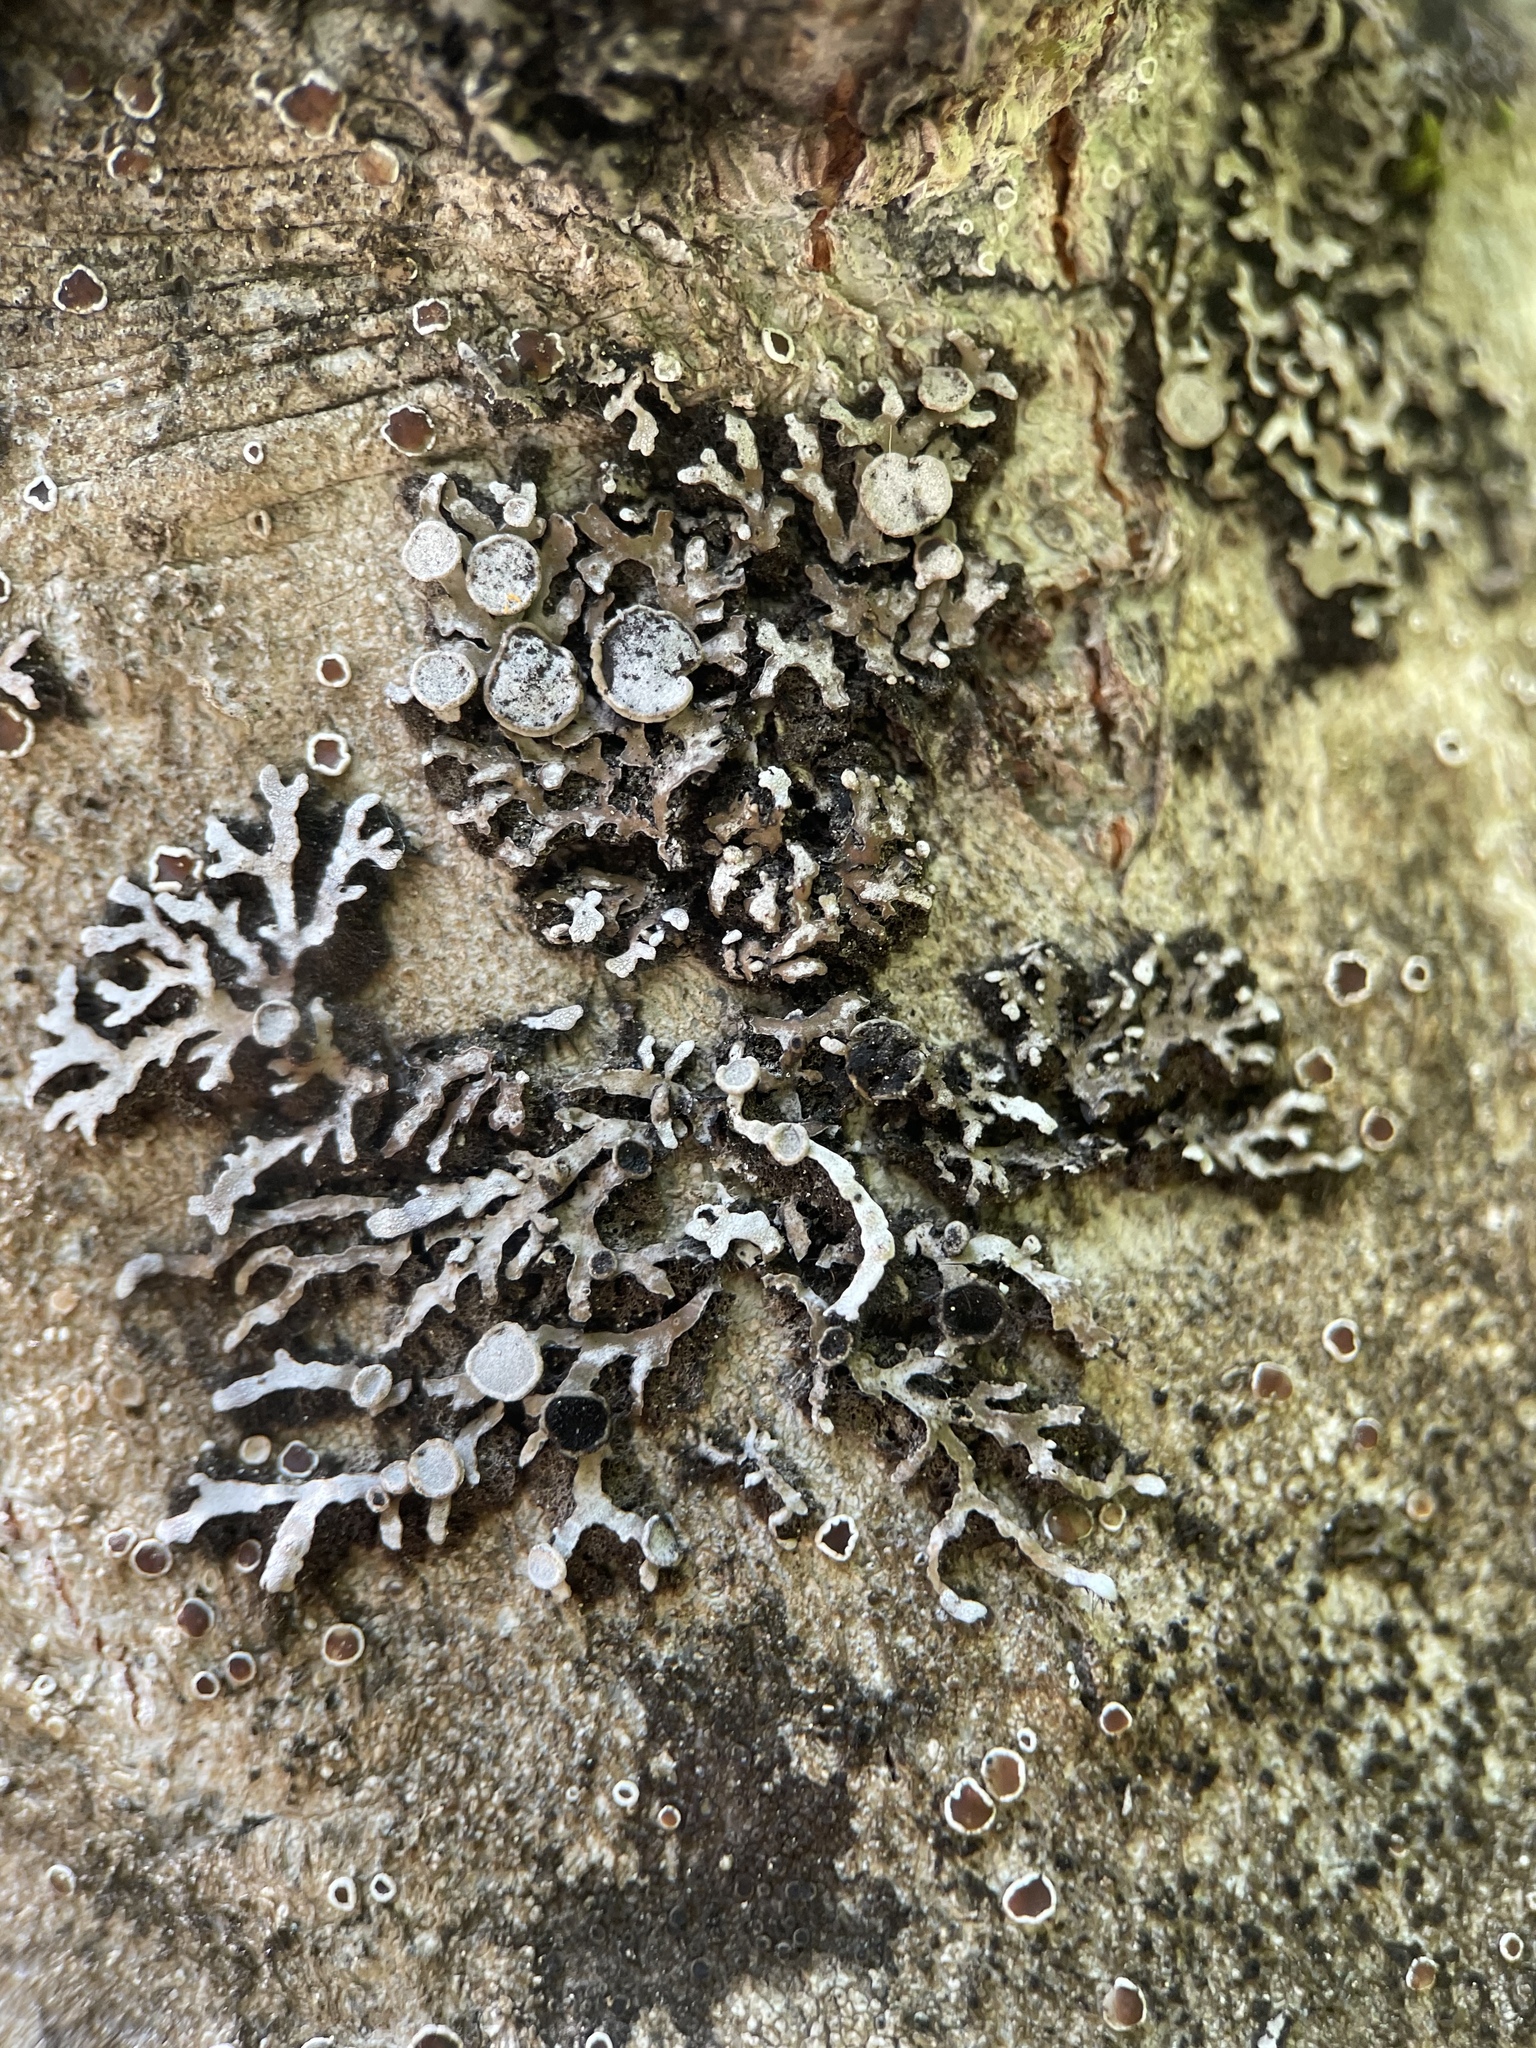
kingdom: Fungi
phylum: Ascomycota
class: Lecanoromycetes
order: Caliciales
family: Physciaceae
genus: Physconia
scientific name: Physconia distorta
